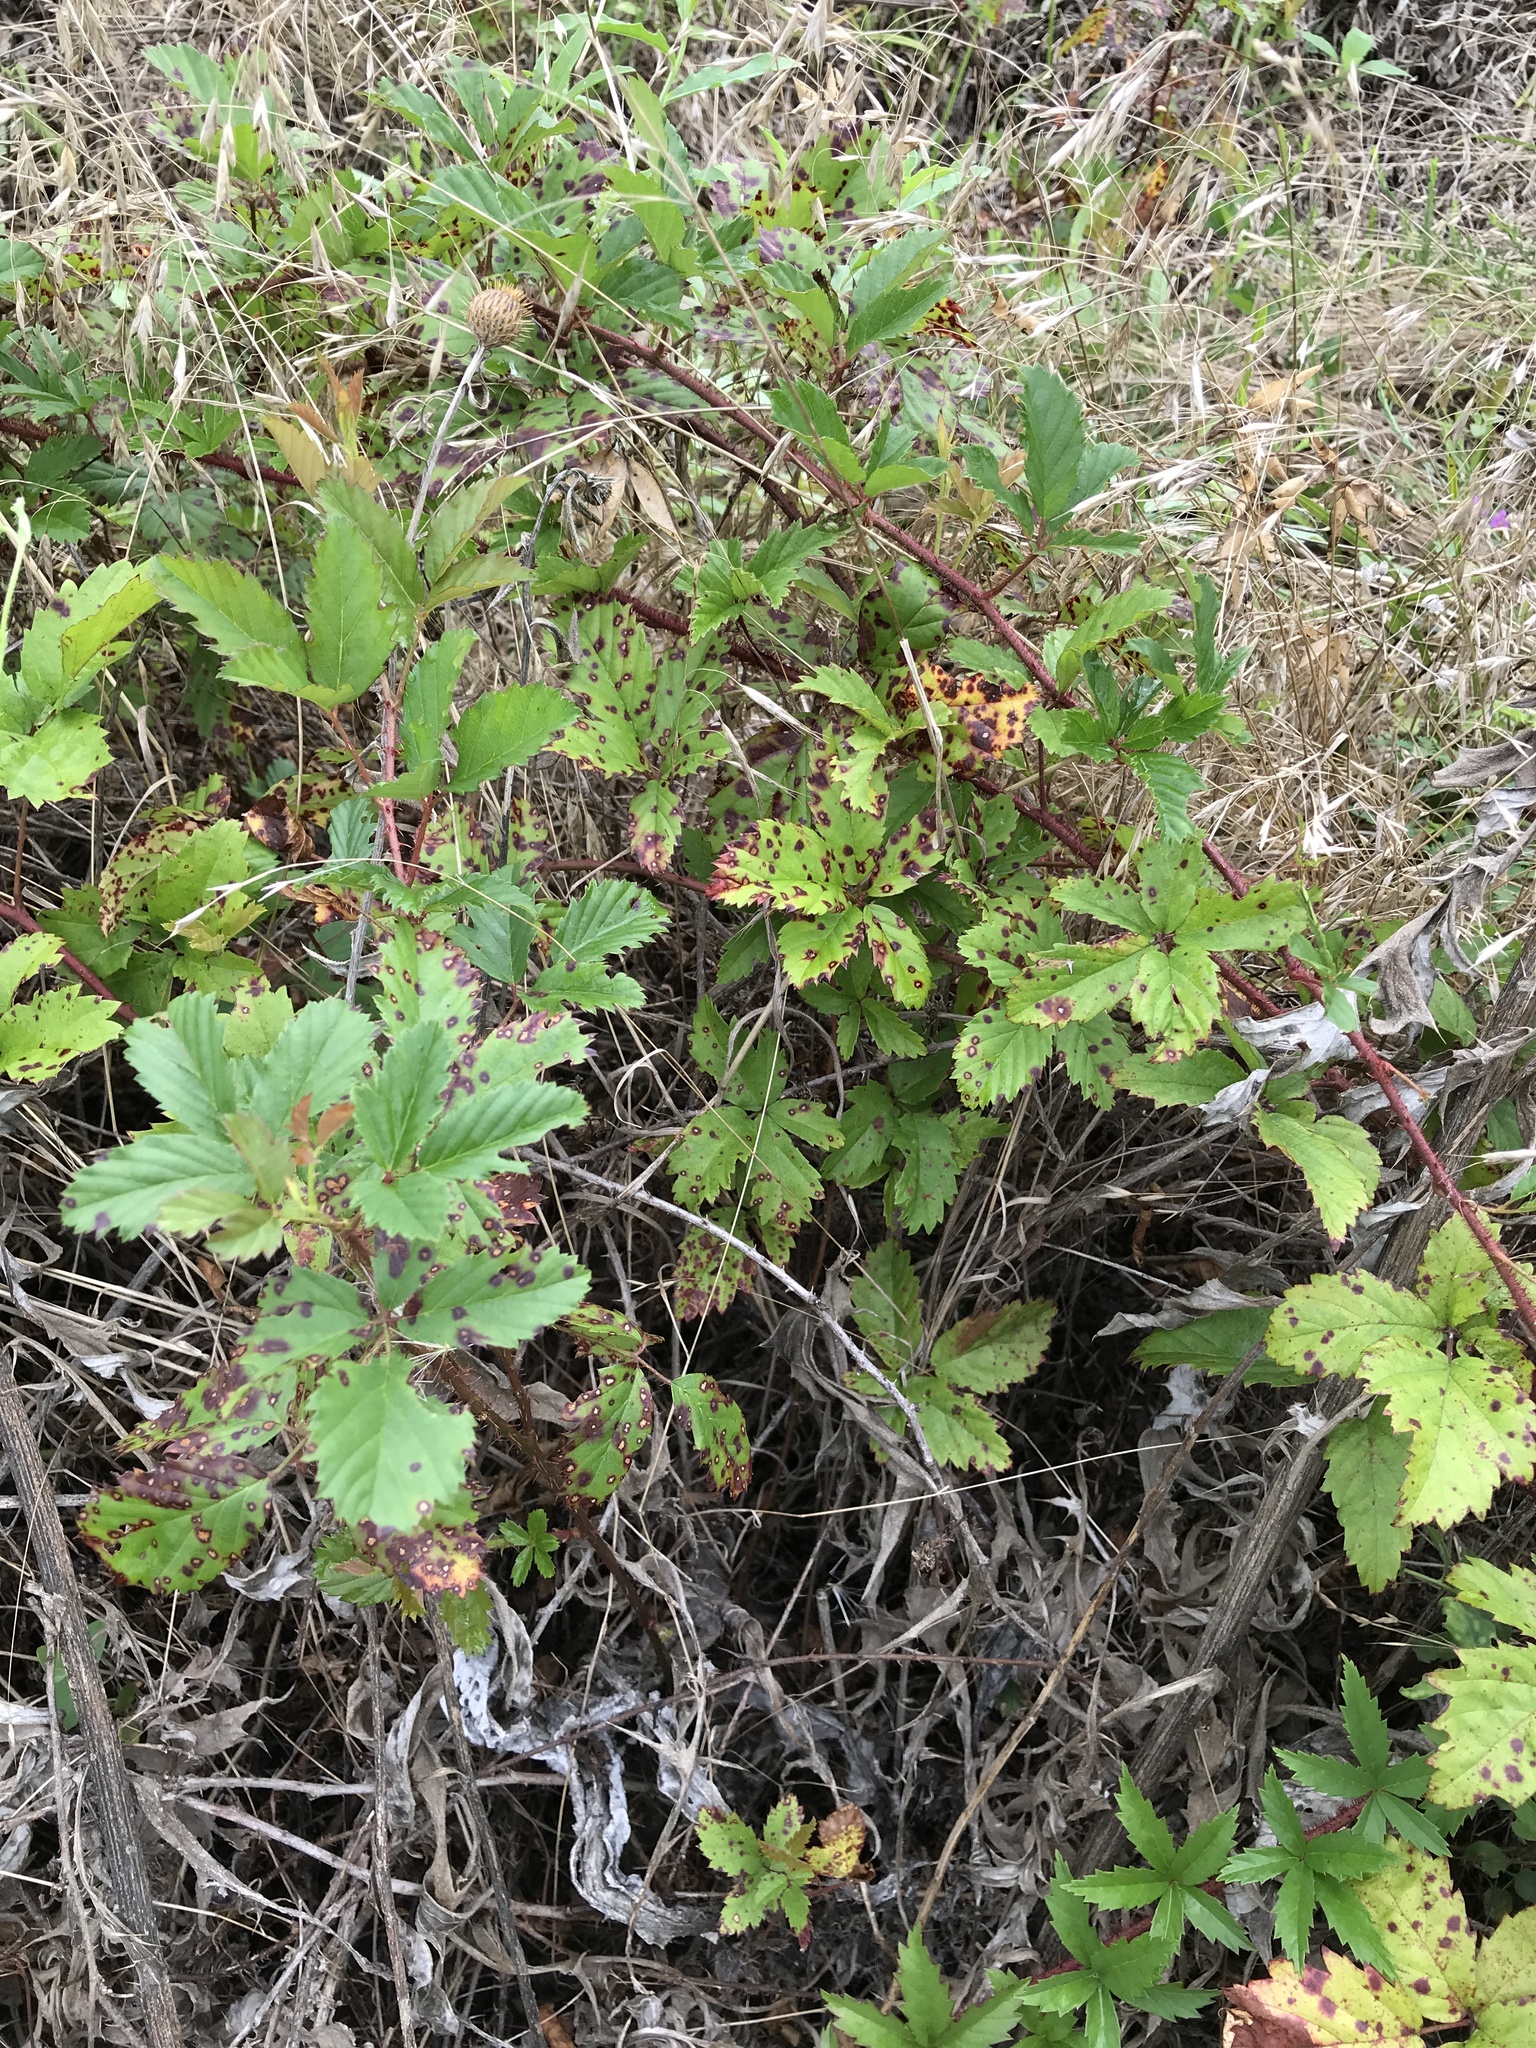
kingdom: Plantae
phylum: Tracheophyta
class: Magnoliopsida
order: Rosales
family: Rosaceae
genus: Rubus
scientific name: Rubus trivialis
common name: Southern dewberry
